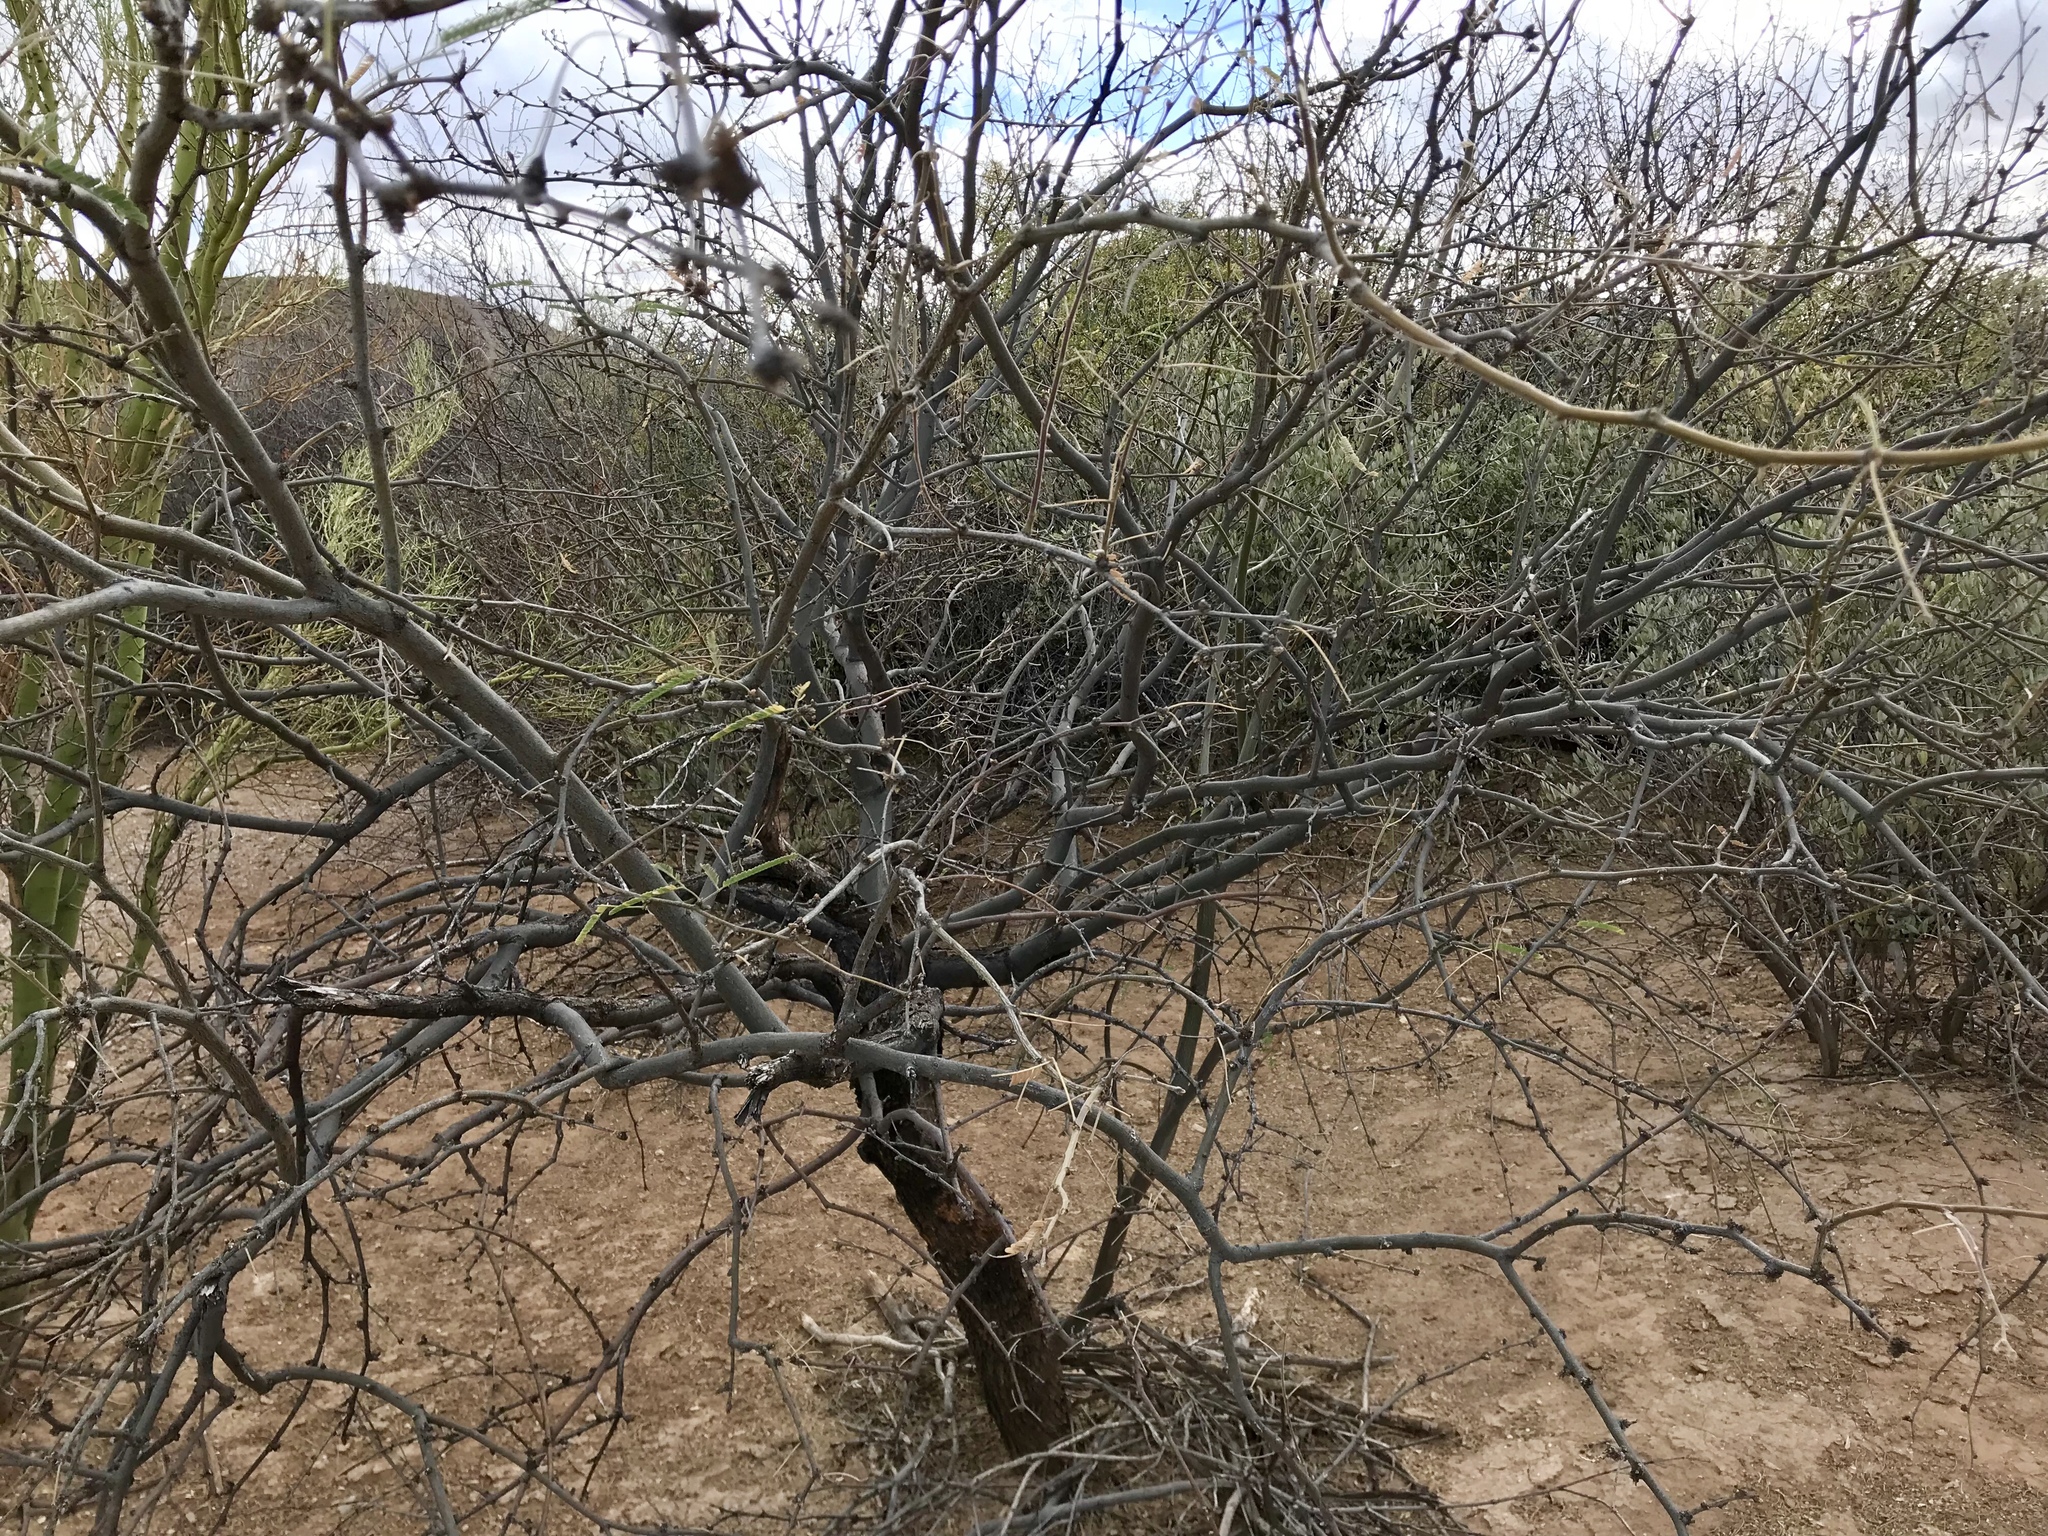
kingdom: Plantae
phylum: Tracheophyta
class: Magnoliopsida
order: Fabales
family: Fabaceae
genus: Prosopis
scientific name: Prosopis velutina
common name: Velvet mesquite
